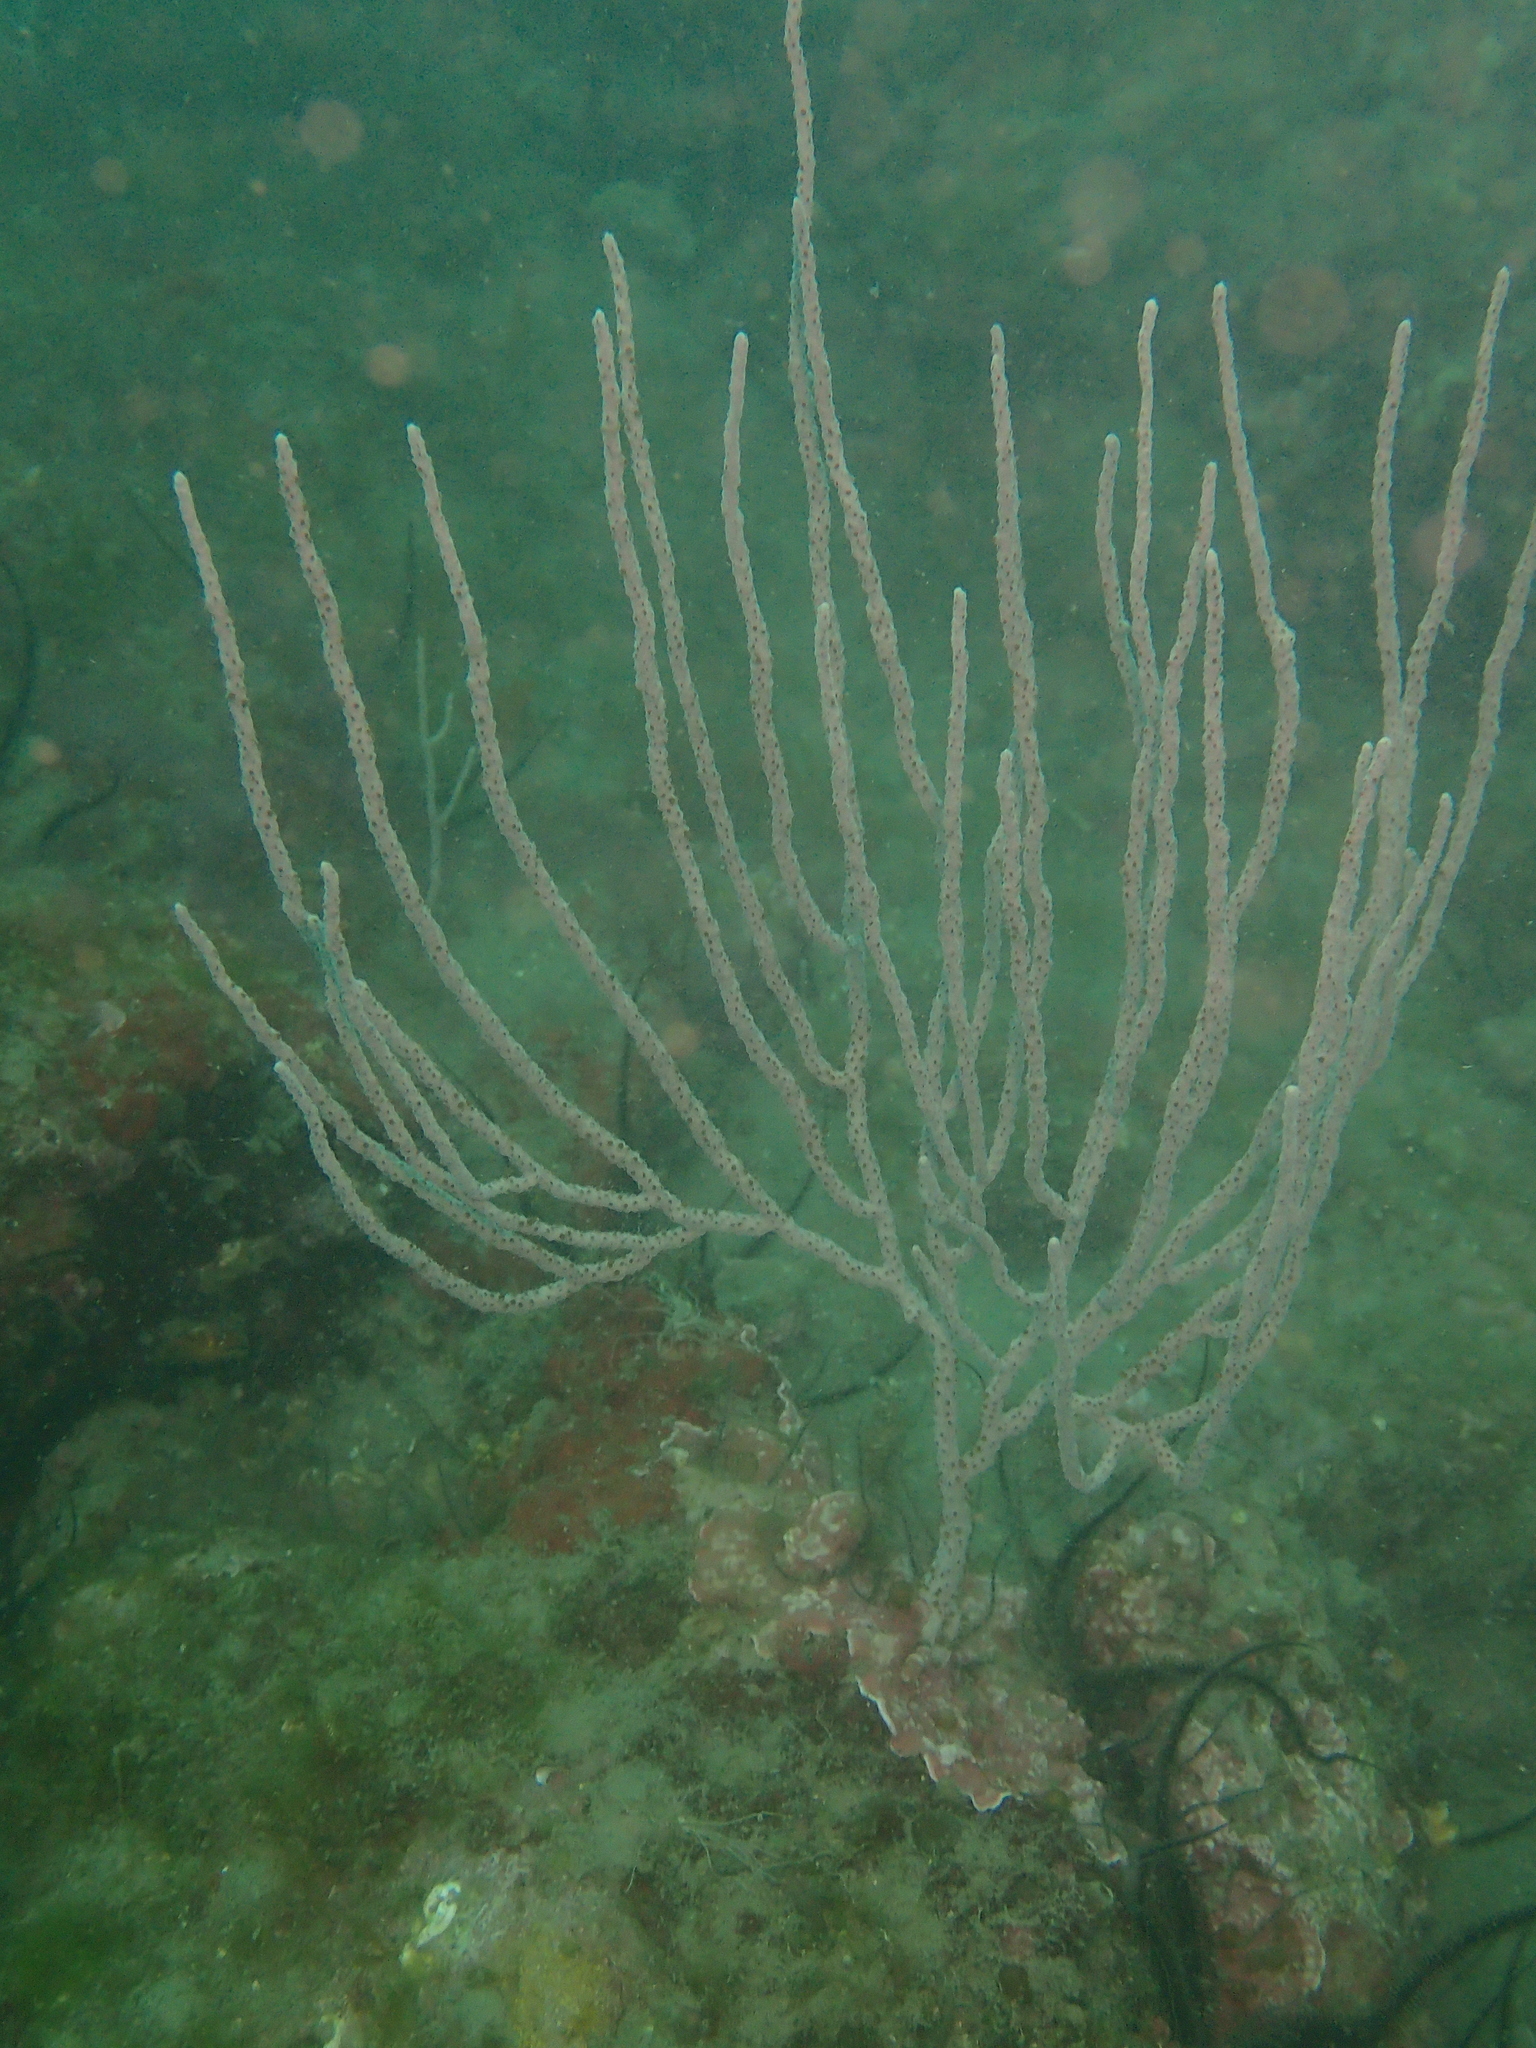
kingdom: Animalia
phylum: Cnidaria
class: Anthozoa
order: Malacalcyonacea
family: Eunicellidae
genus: Eunicella
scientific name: Eunicella singularis
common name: White horny coral
